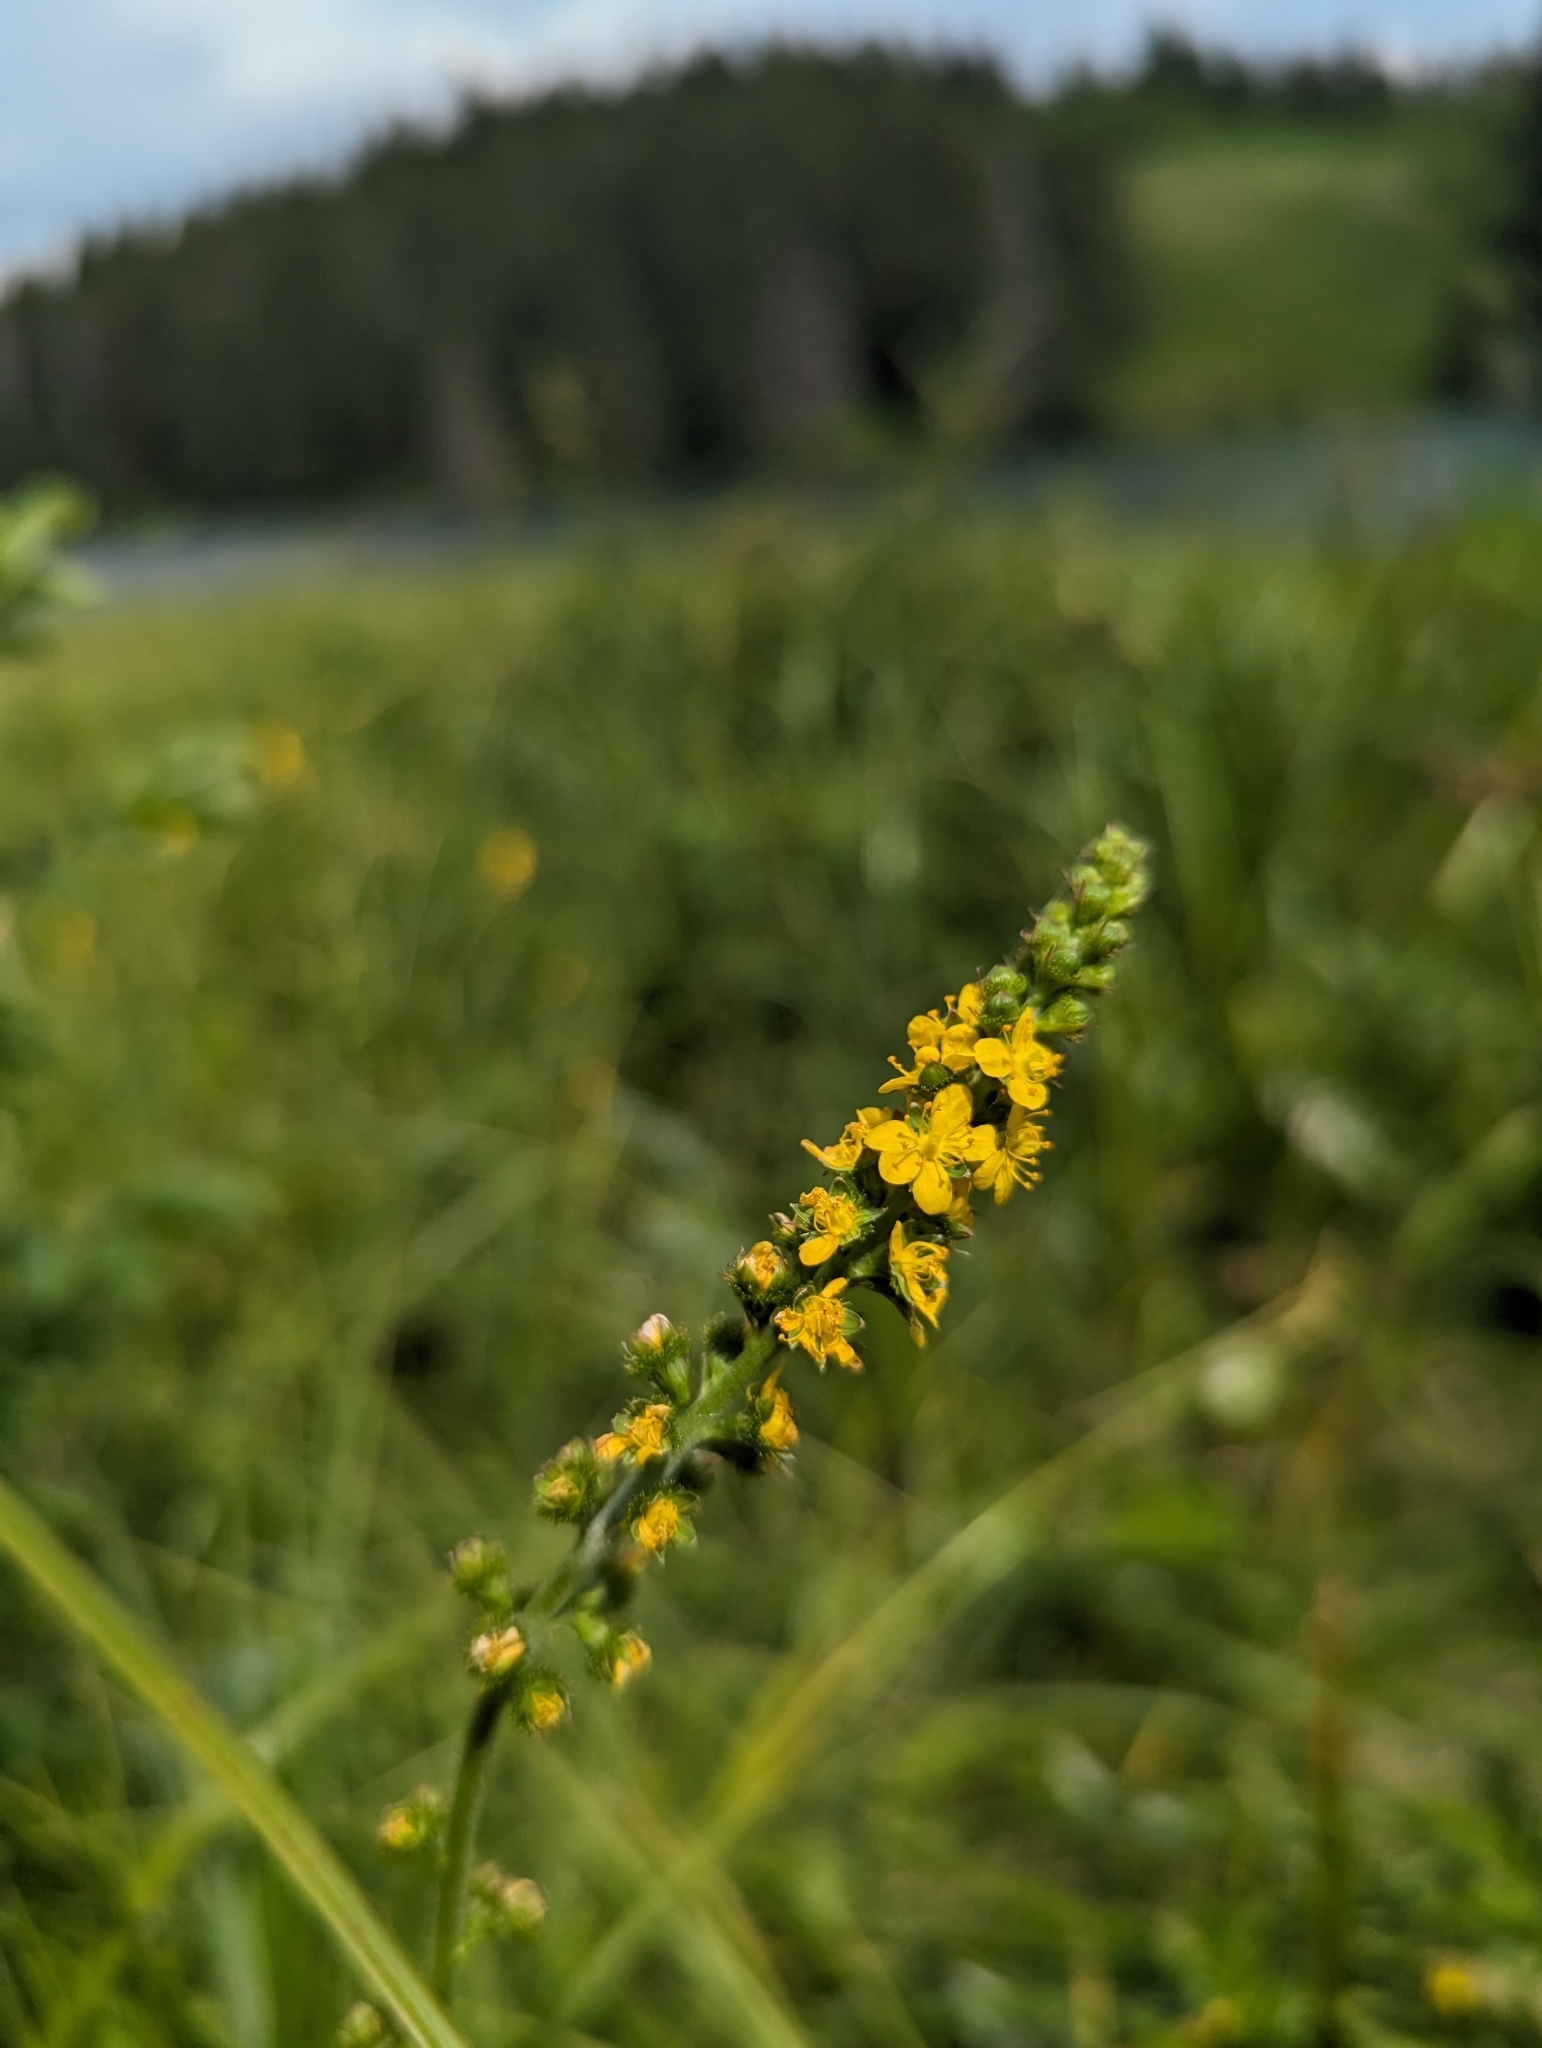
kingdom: Plantae
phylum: Tracheophyta
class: Magnoliopsida
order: Rosales
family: Rosaceae
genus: Agrimonia
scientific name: Agrimonia striata
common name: Britton's agrimony
